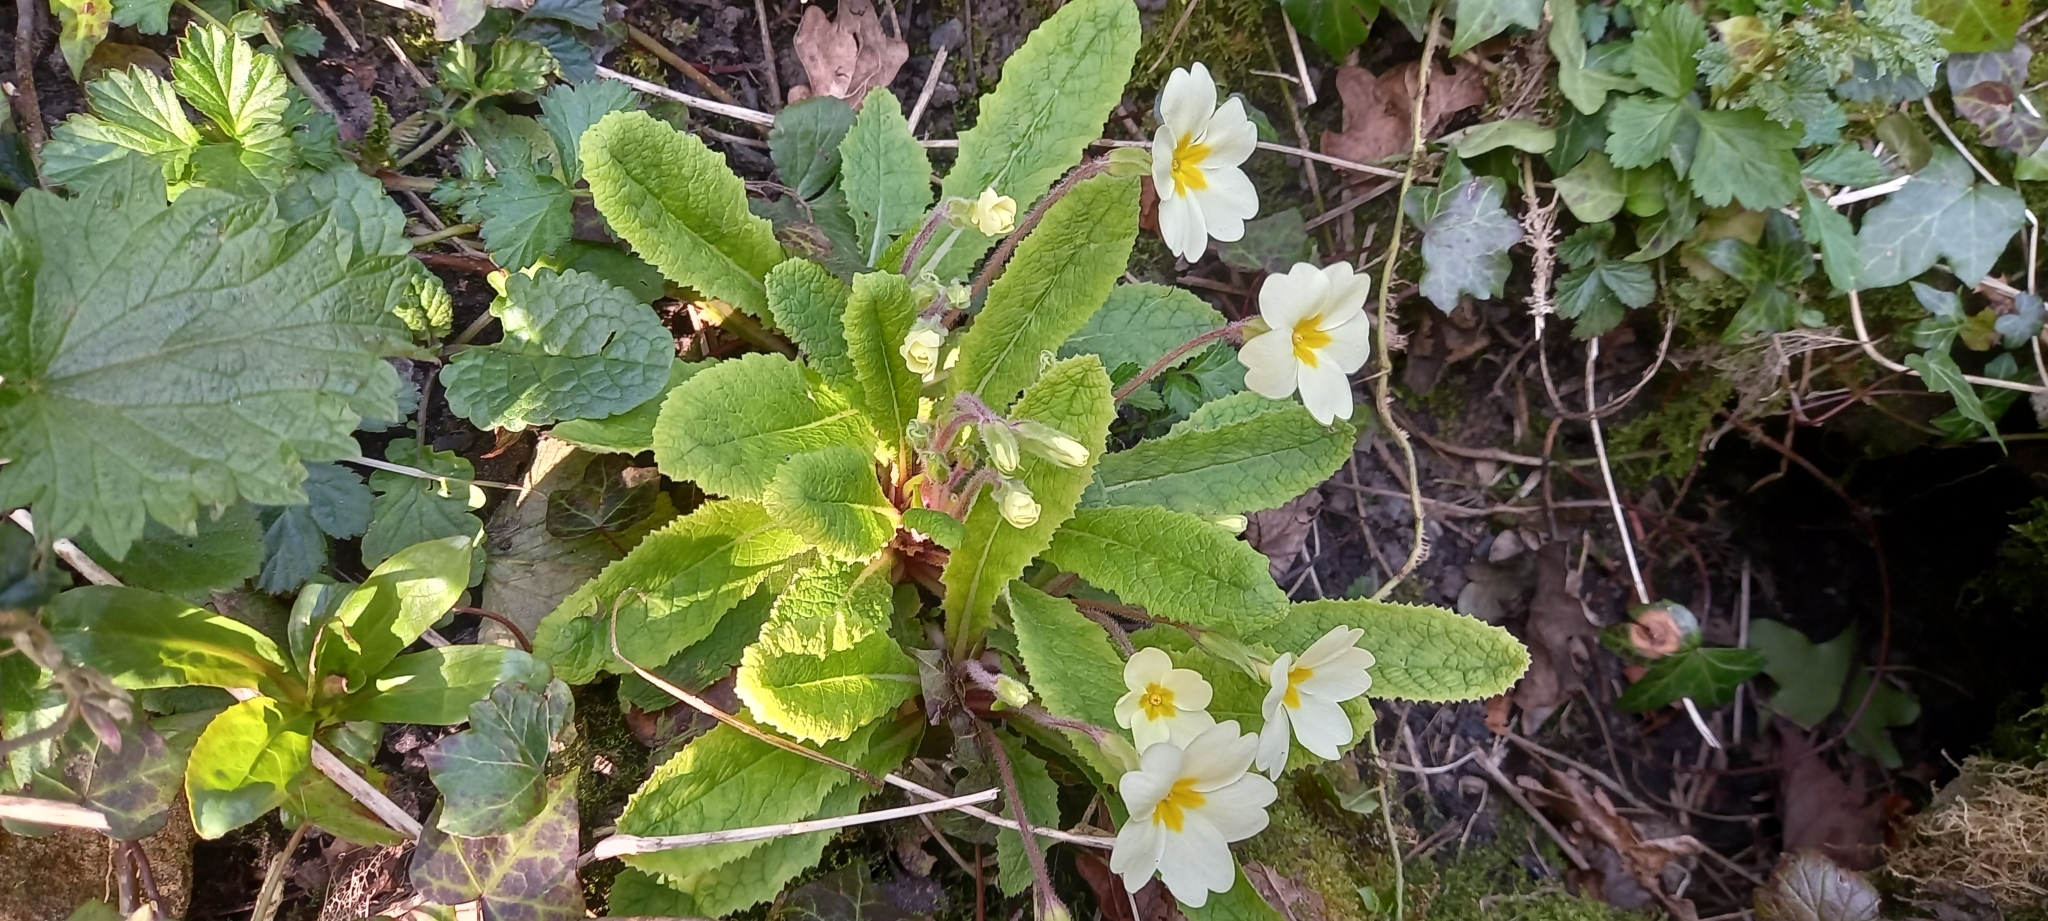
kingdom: Plantae
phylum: Tracheophyta
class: Magnoliopsida
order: Ericales
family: Primulaceae
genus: Primula
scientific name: Primula vulgaris
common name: Primrose
